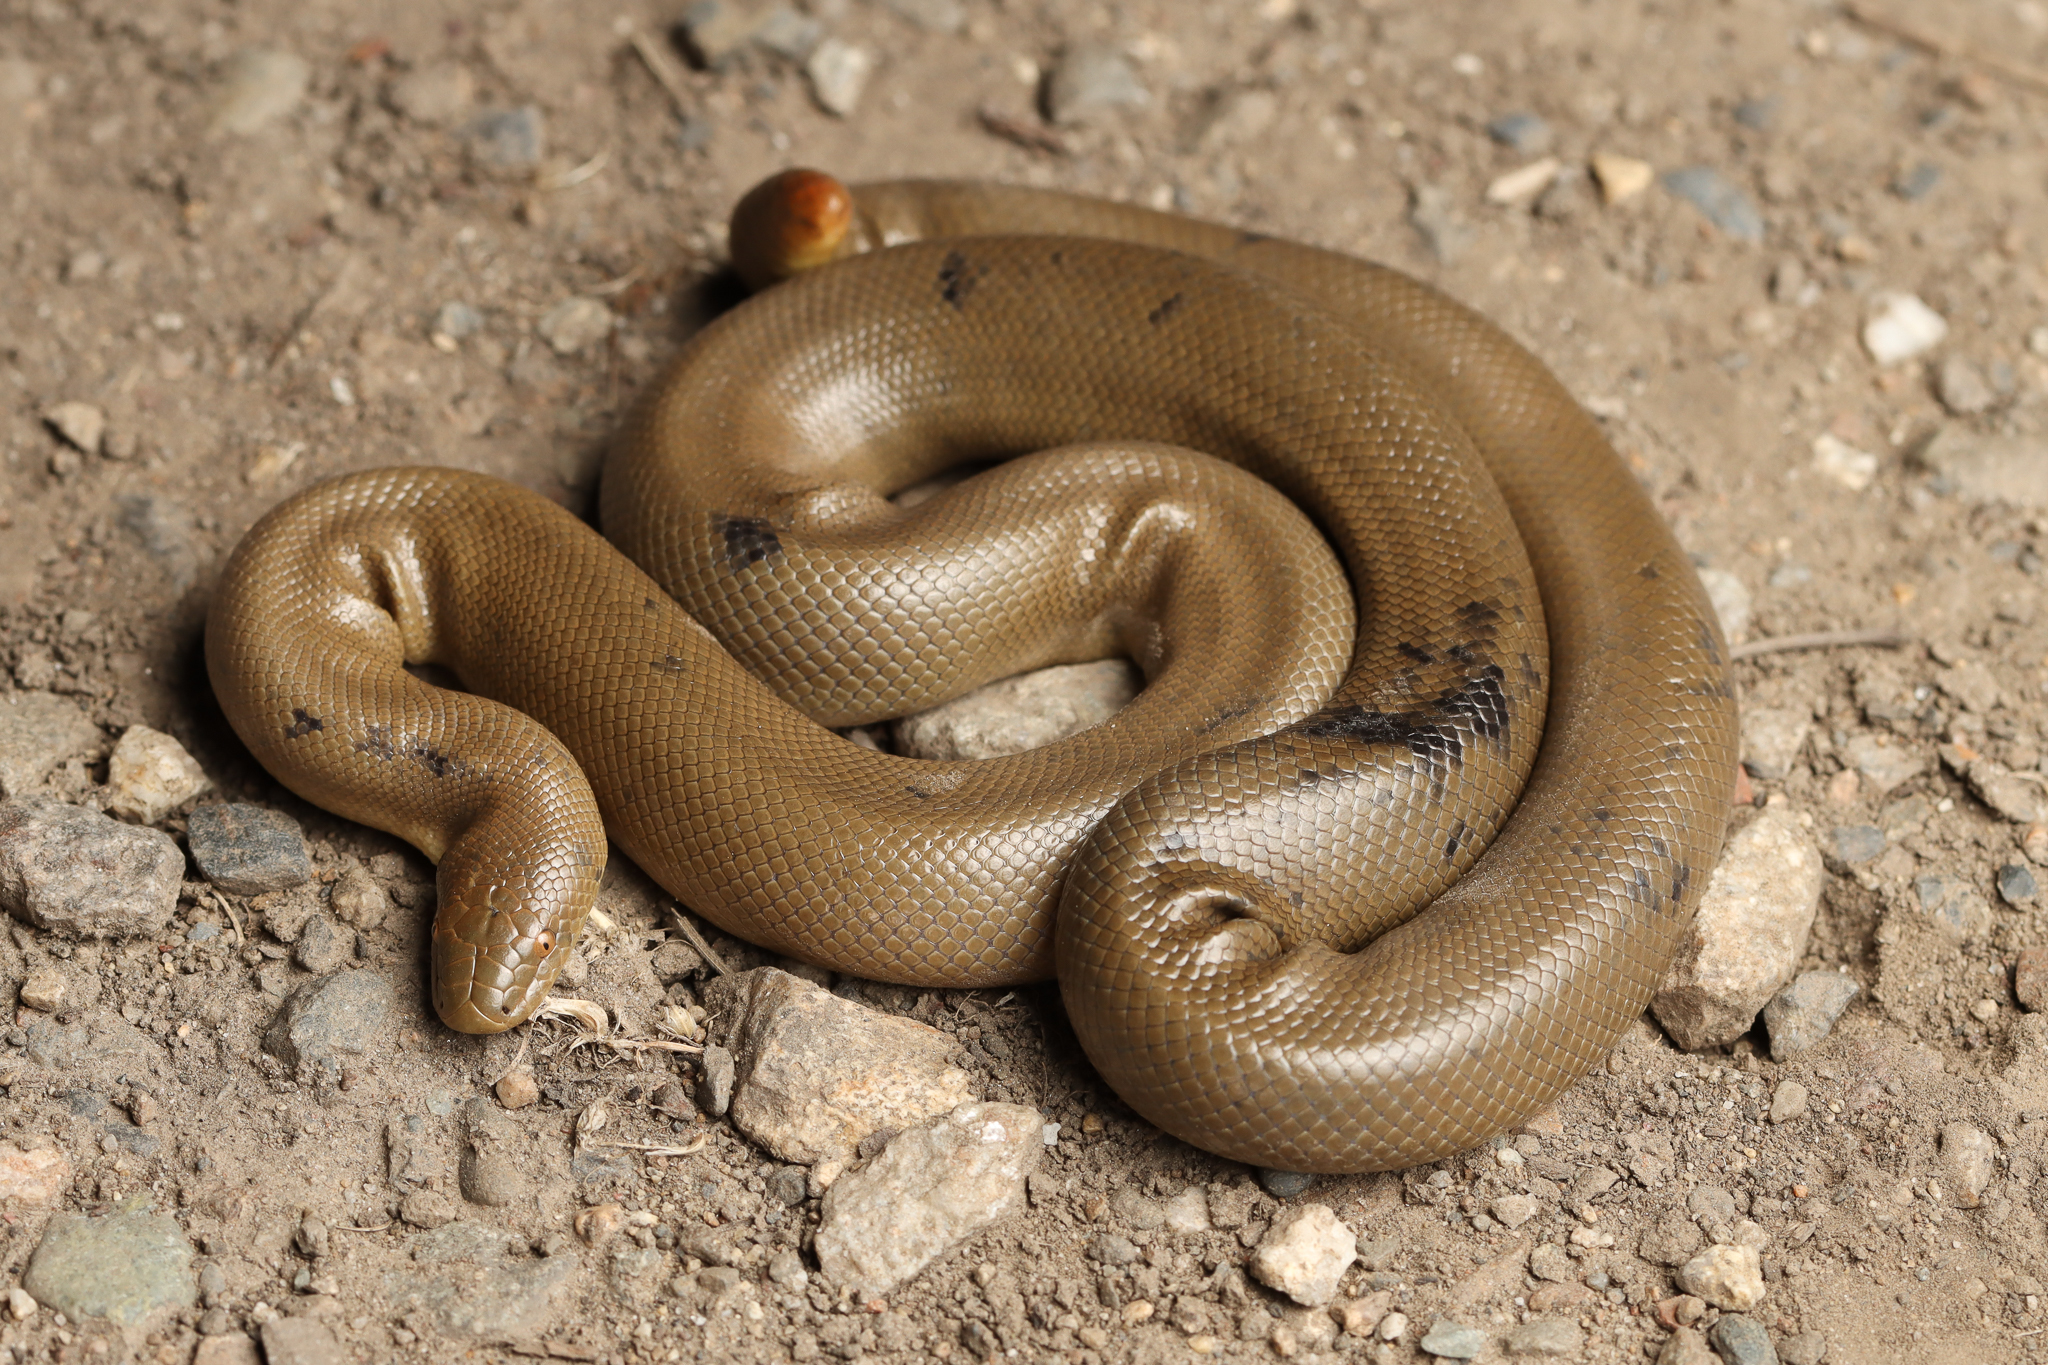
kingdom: Animalia
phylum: Chordata
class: Squamata
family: Boidae
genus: Charina
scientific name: Charina bottae
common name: Northern rubber boa
